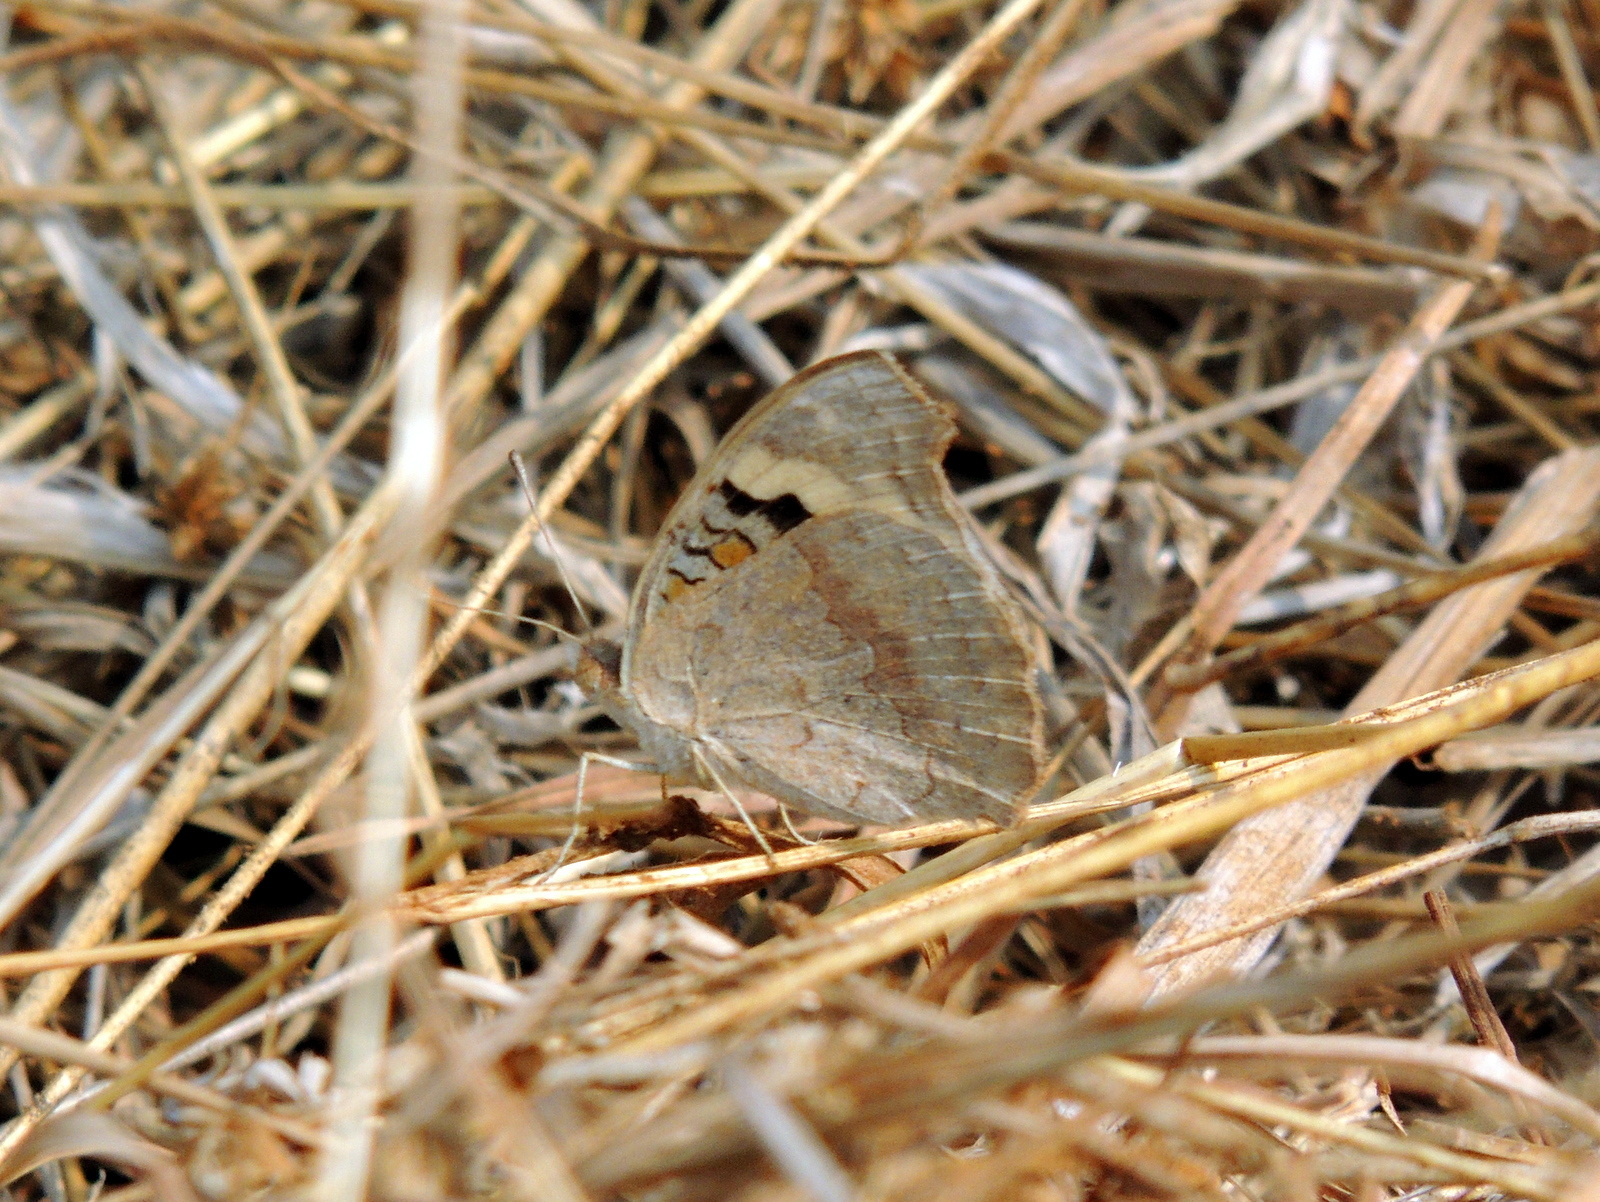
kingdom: Animalia
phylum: Arthropoda
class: Insecta
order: Lepidoptera
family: Nymphalidae
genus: Junonia
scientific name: Junonia orithya
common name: Blue pansy
